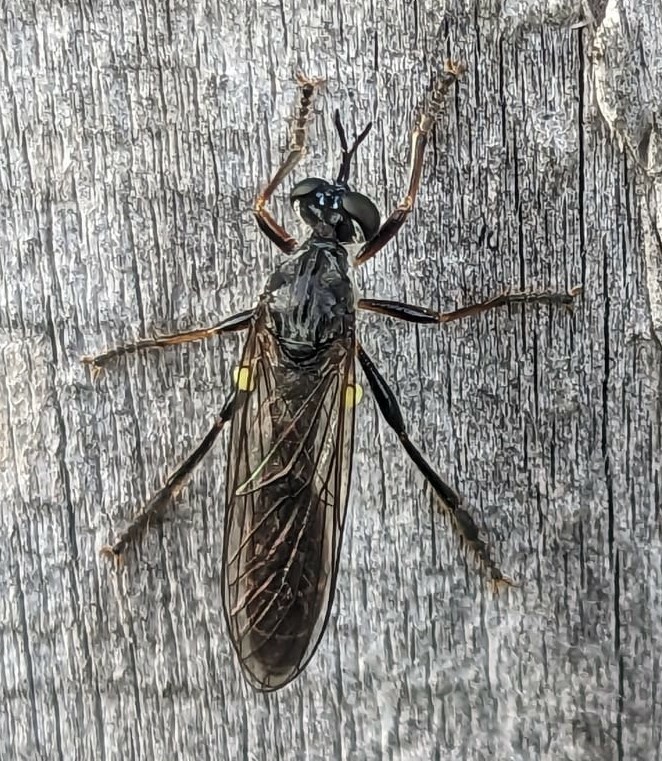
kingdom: Animalia
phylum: Arthropoda
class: Insecta
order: Diptera
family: Asilidae
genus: Dioctria
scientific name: Dioctria hyalipennis
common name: Stripe-legged robberfly
